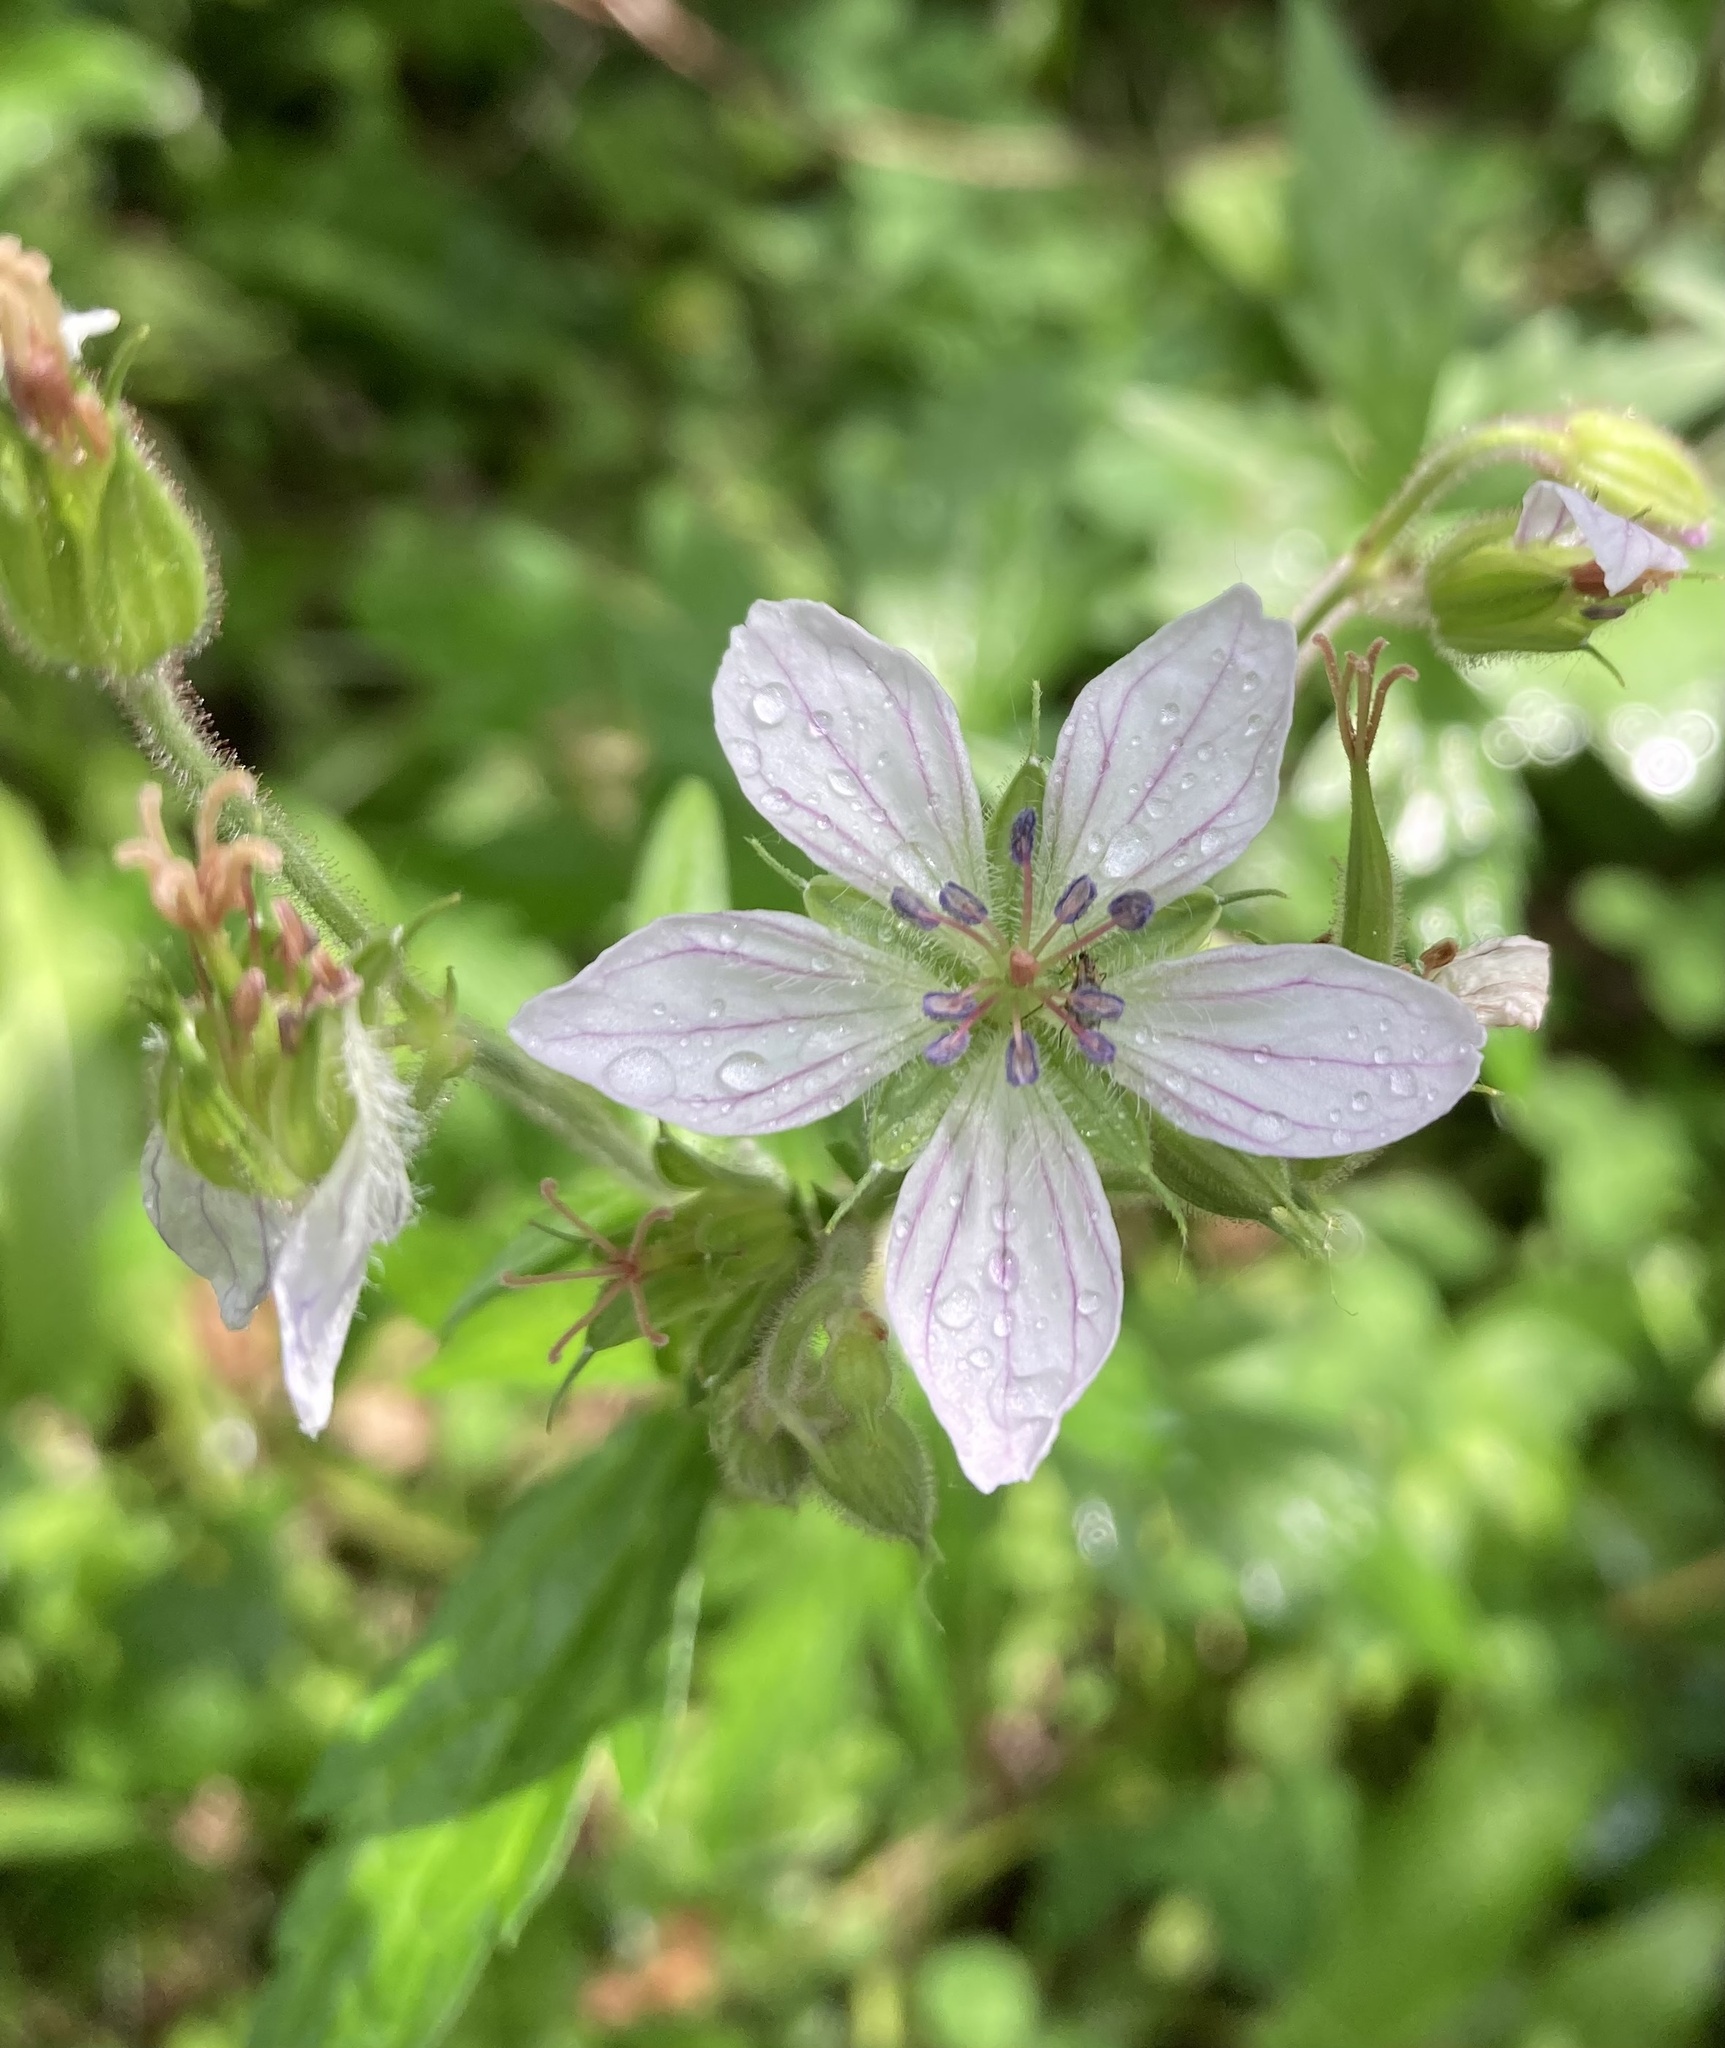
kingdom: Plantae
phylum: Tracheophyta
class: Magnoliopsida
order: Geraniales
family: Geraniaceae
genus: Geranium
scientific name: Geranium richardsonii
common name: Richardson's crane's-bill
